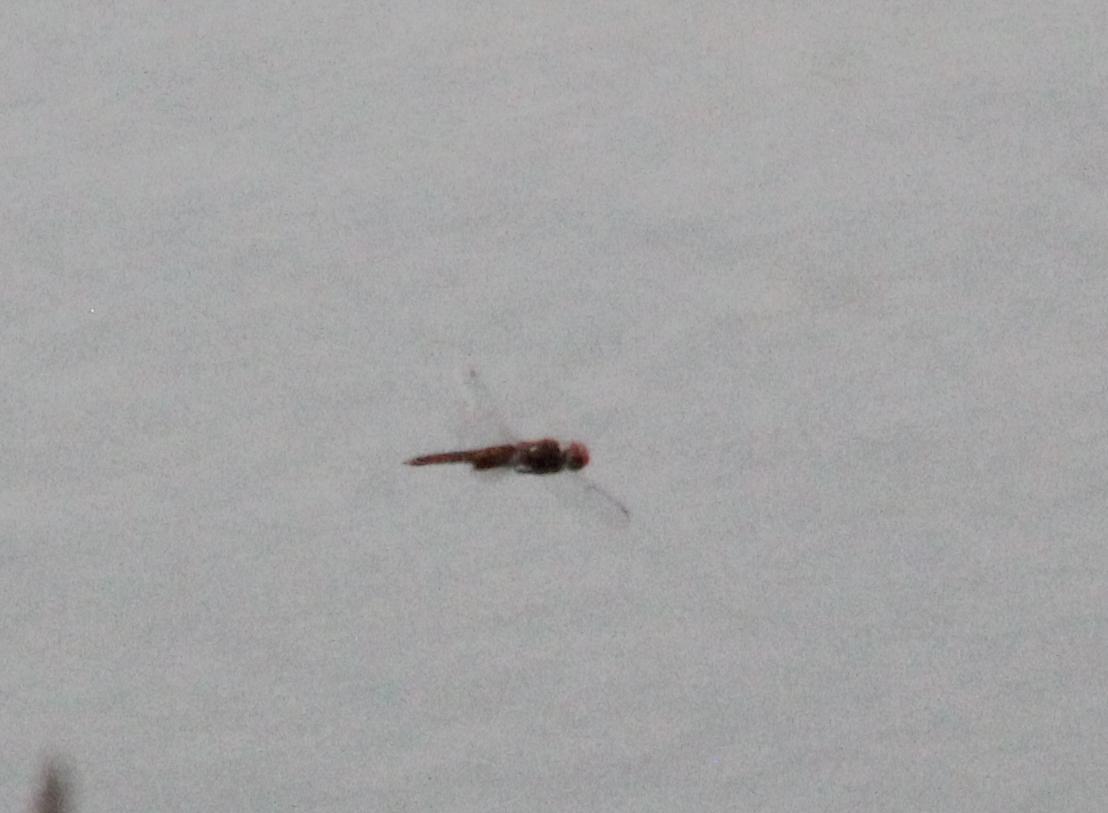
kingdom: Animalia
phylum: Arthropoda
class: Insecta
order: Odonata
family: Libellulidae
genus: Pantala
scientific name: Pantala hymenaea
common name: Spot-winged glider
